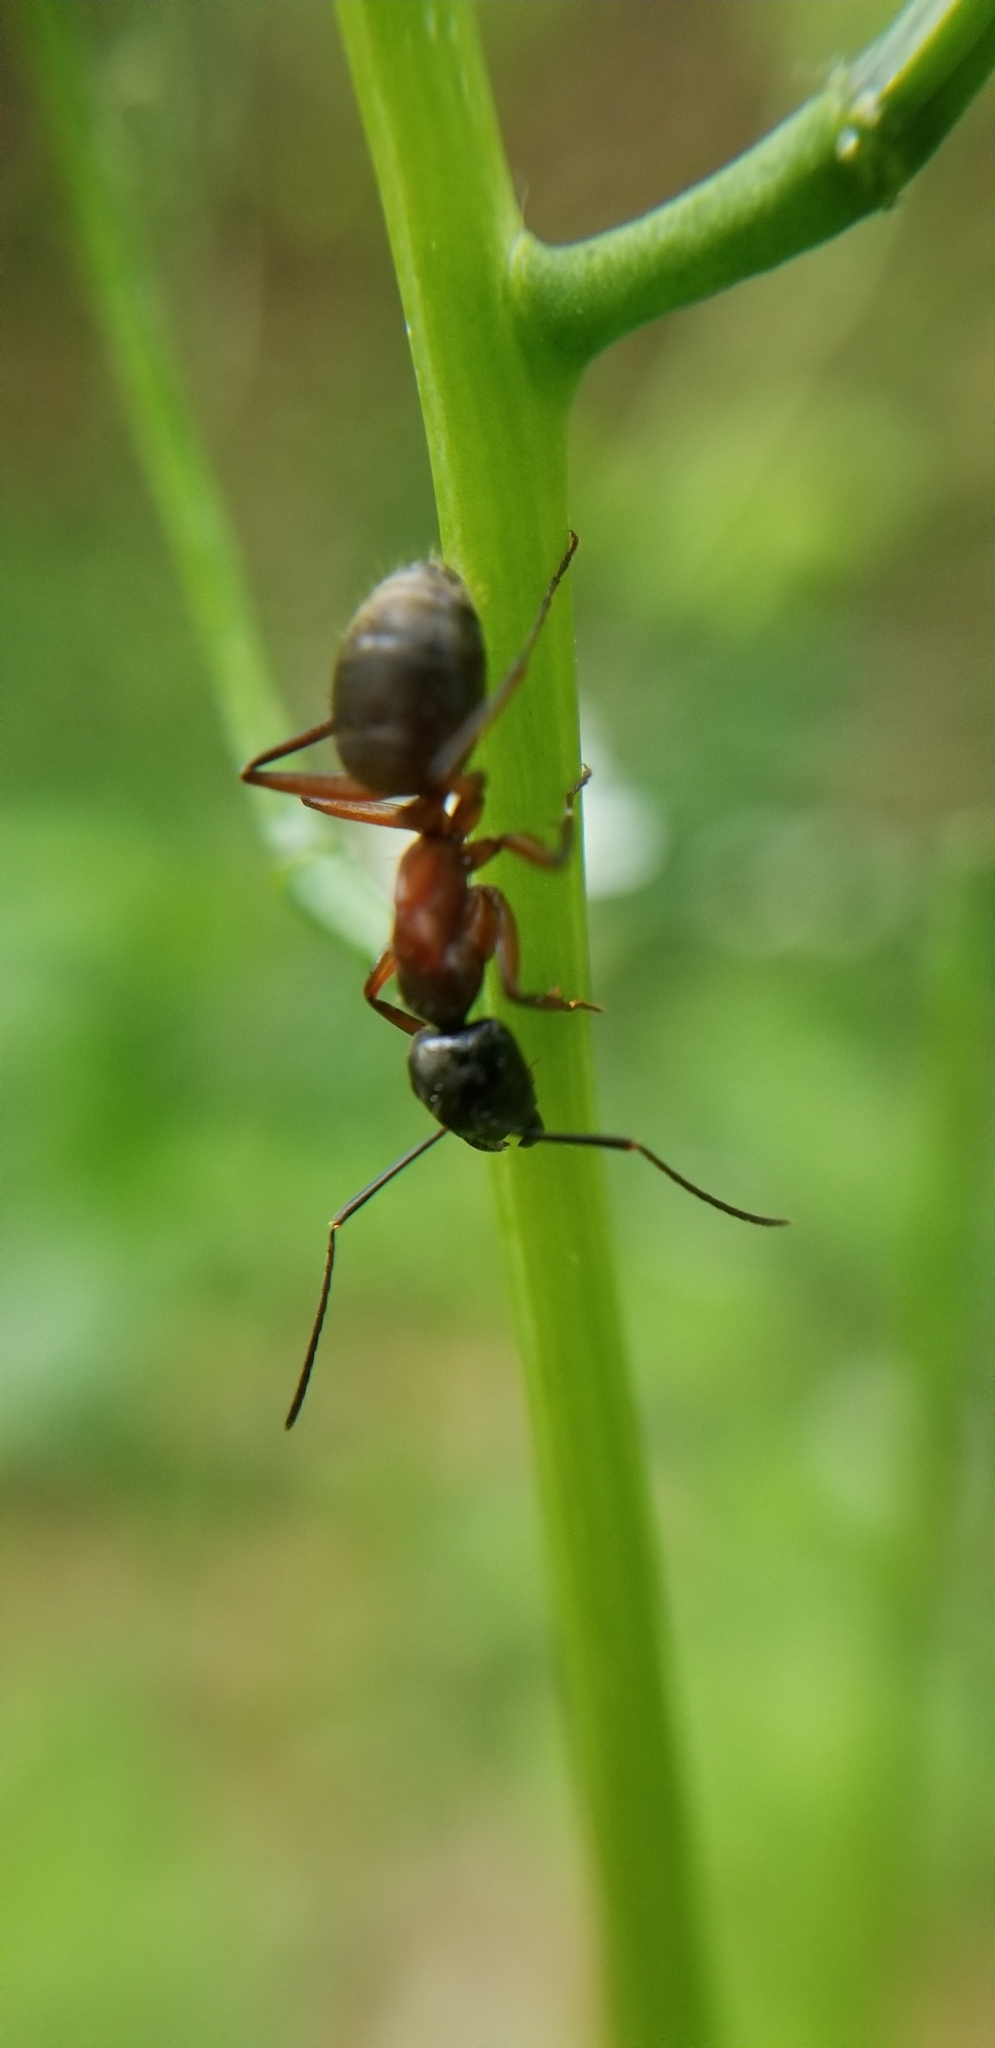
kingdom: Animalia
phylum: Arthropoda
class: Insecta
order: Hymenoptera
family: Formicidae
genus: Camponotus
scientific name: Camponotus chromaiodes
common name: Red carpenter ant
